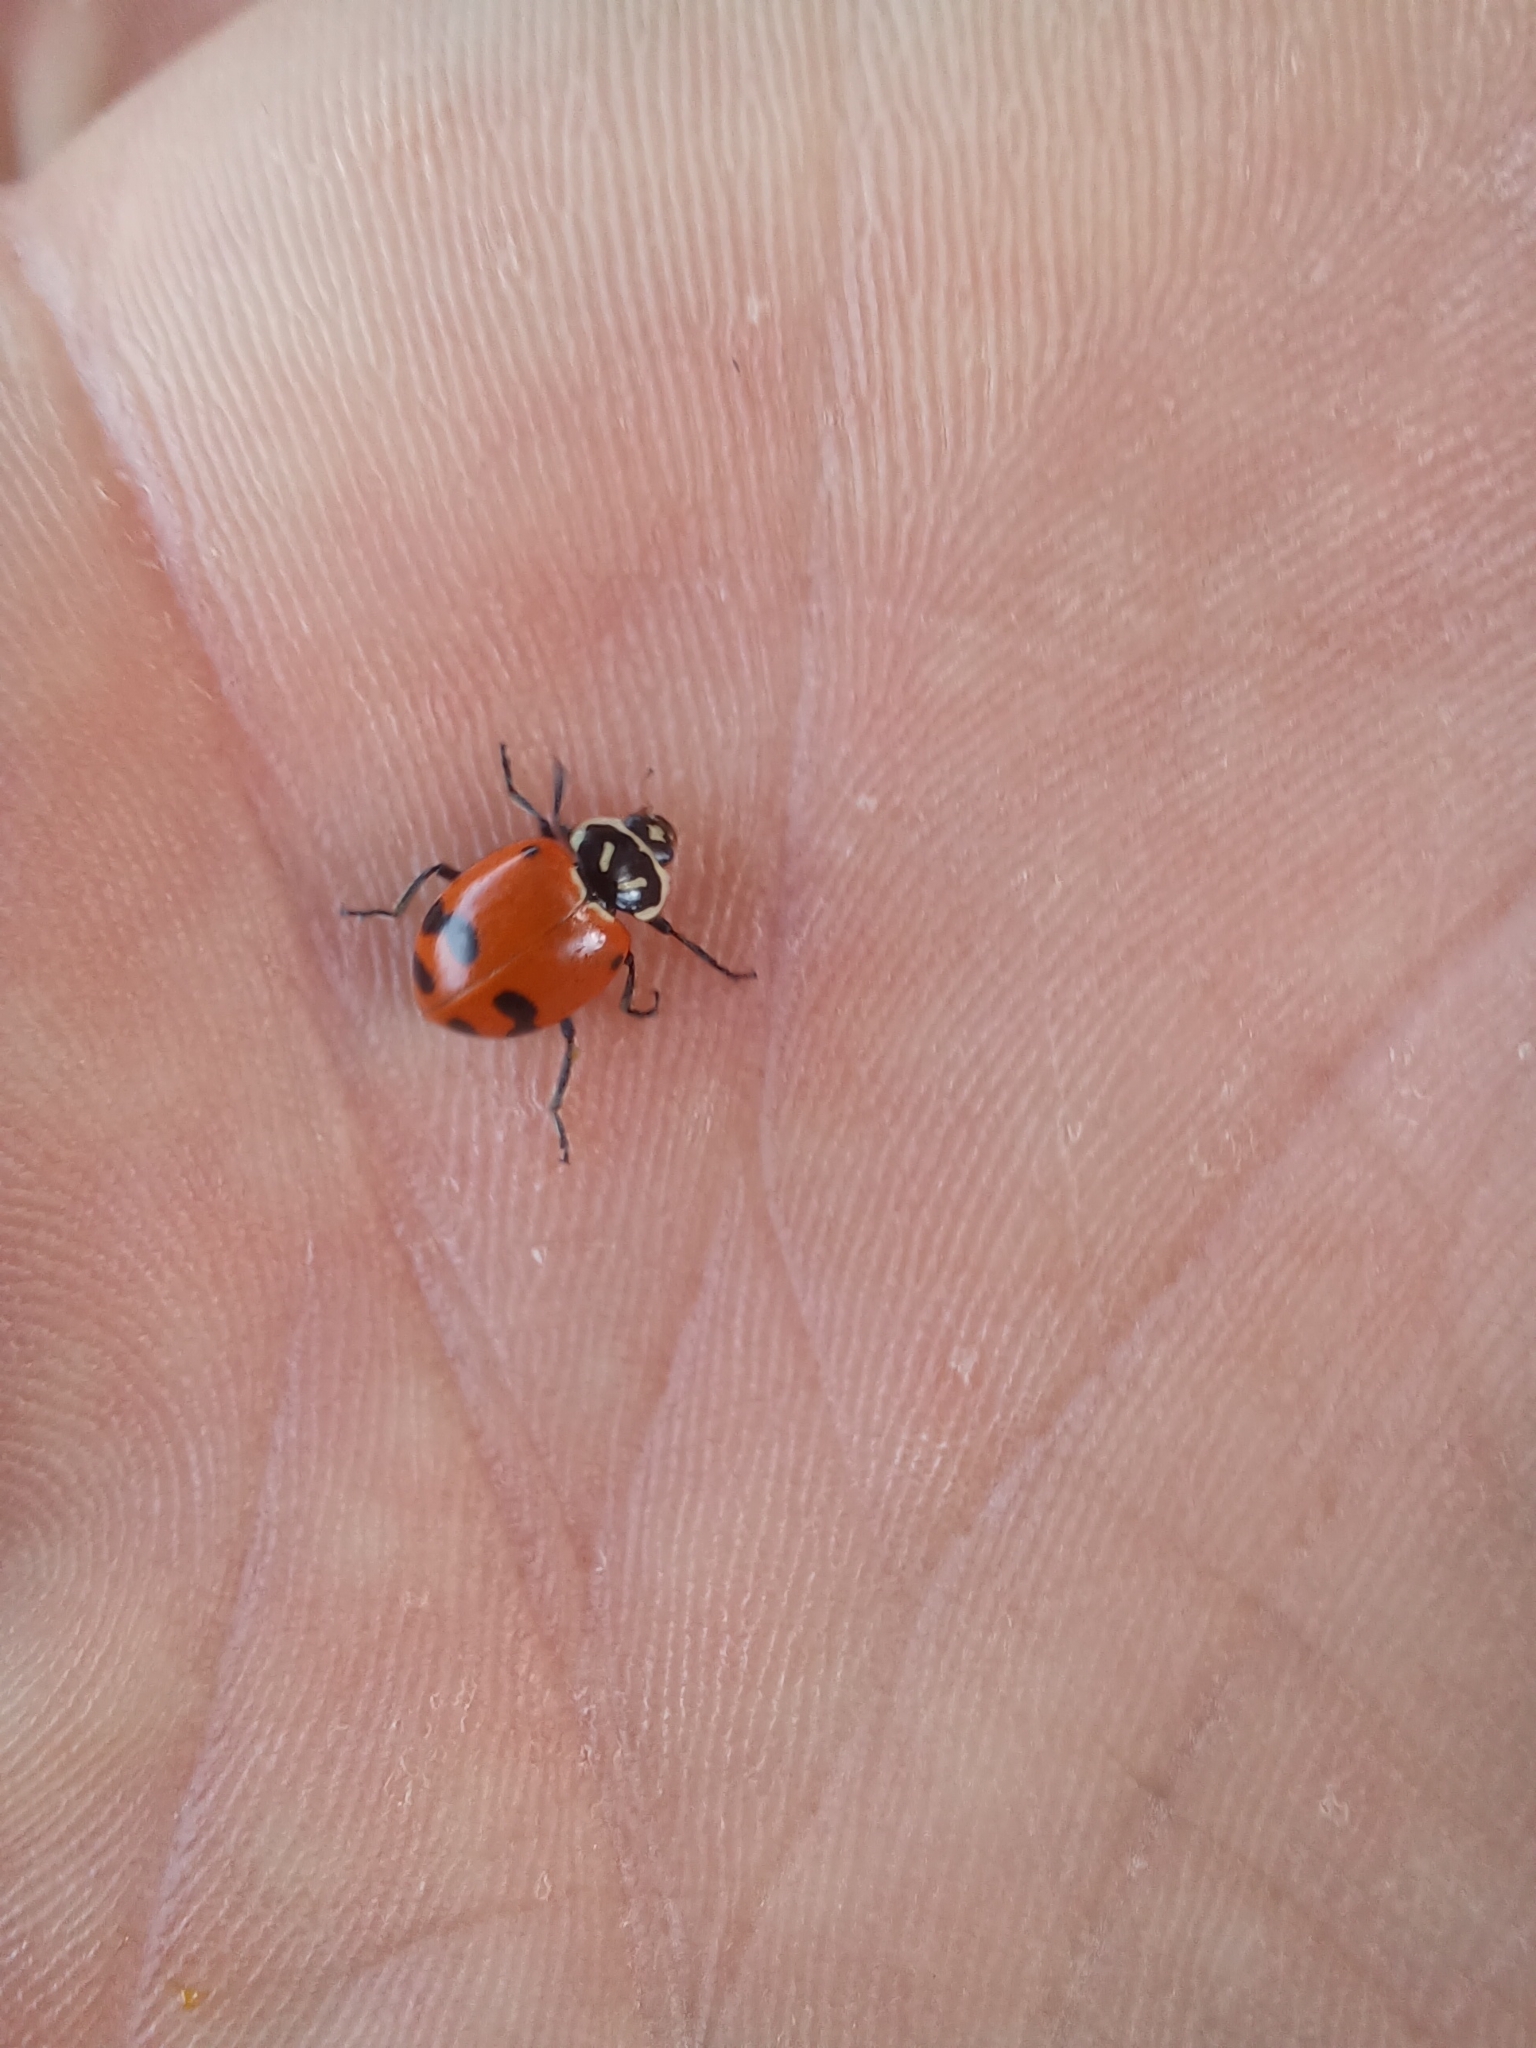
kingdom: Animalia
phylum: Arthropoda
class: Insecta
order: Coleoptera
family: Coccinellidae
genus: Hippodamia
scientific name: Hippodamia glacialis
